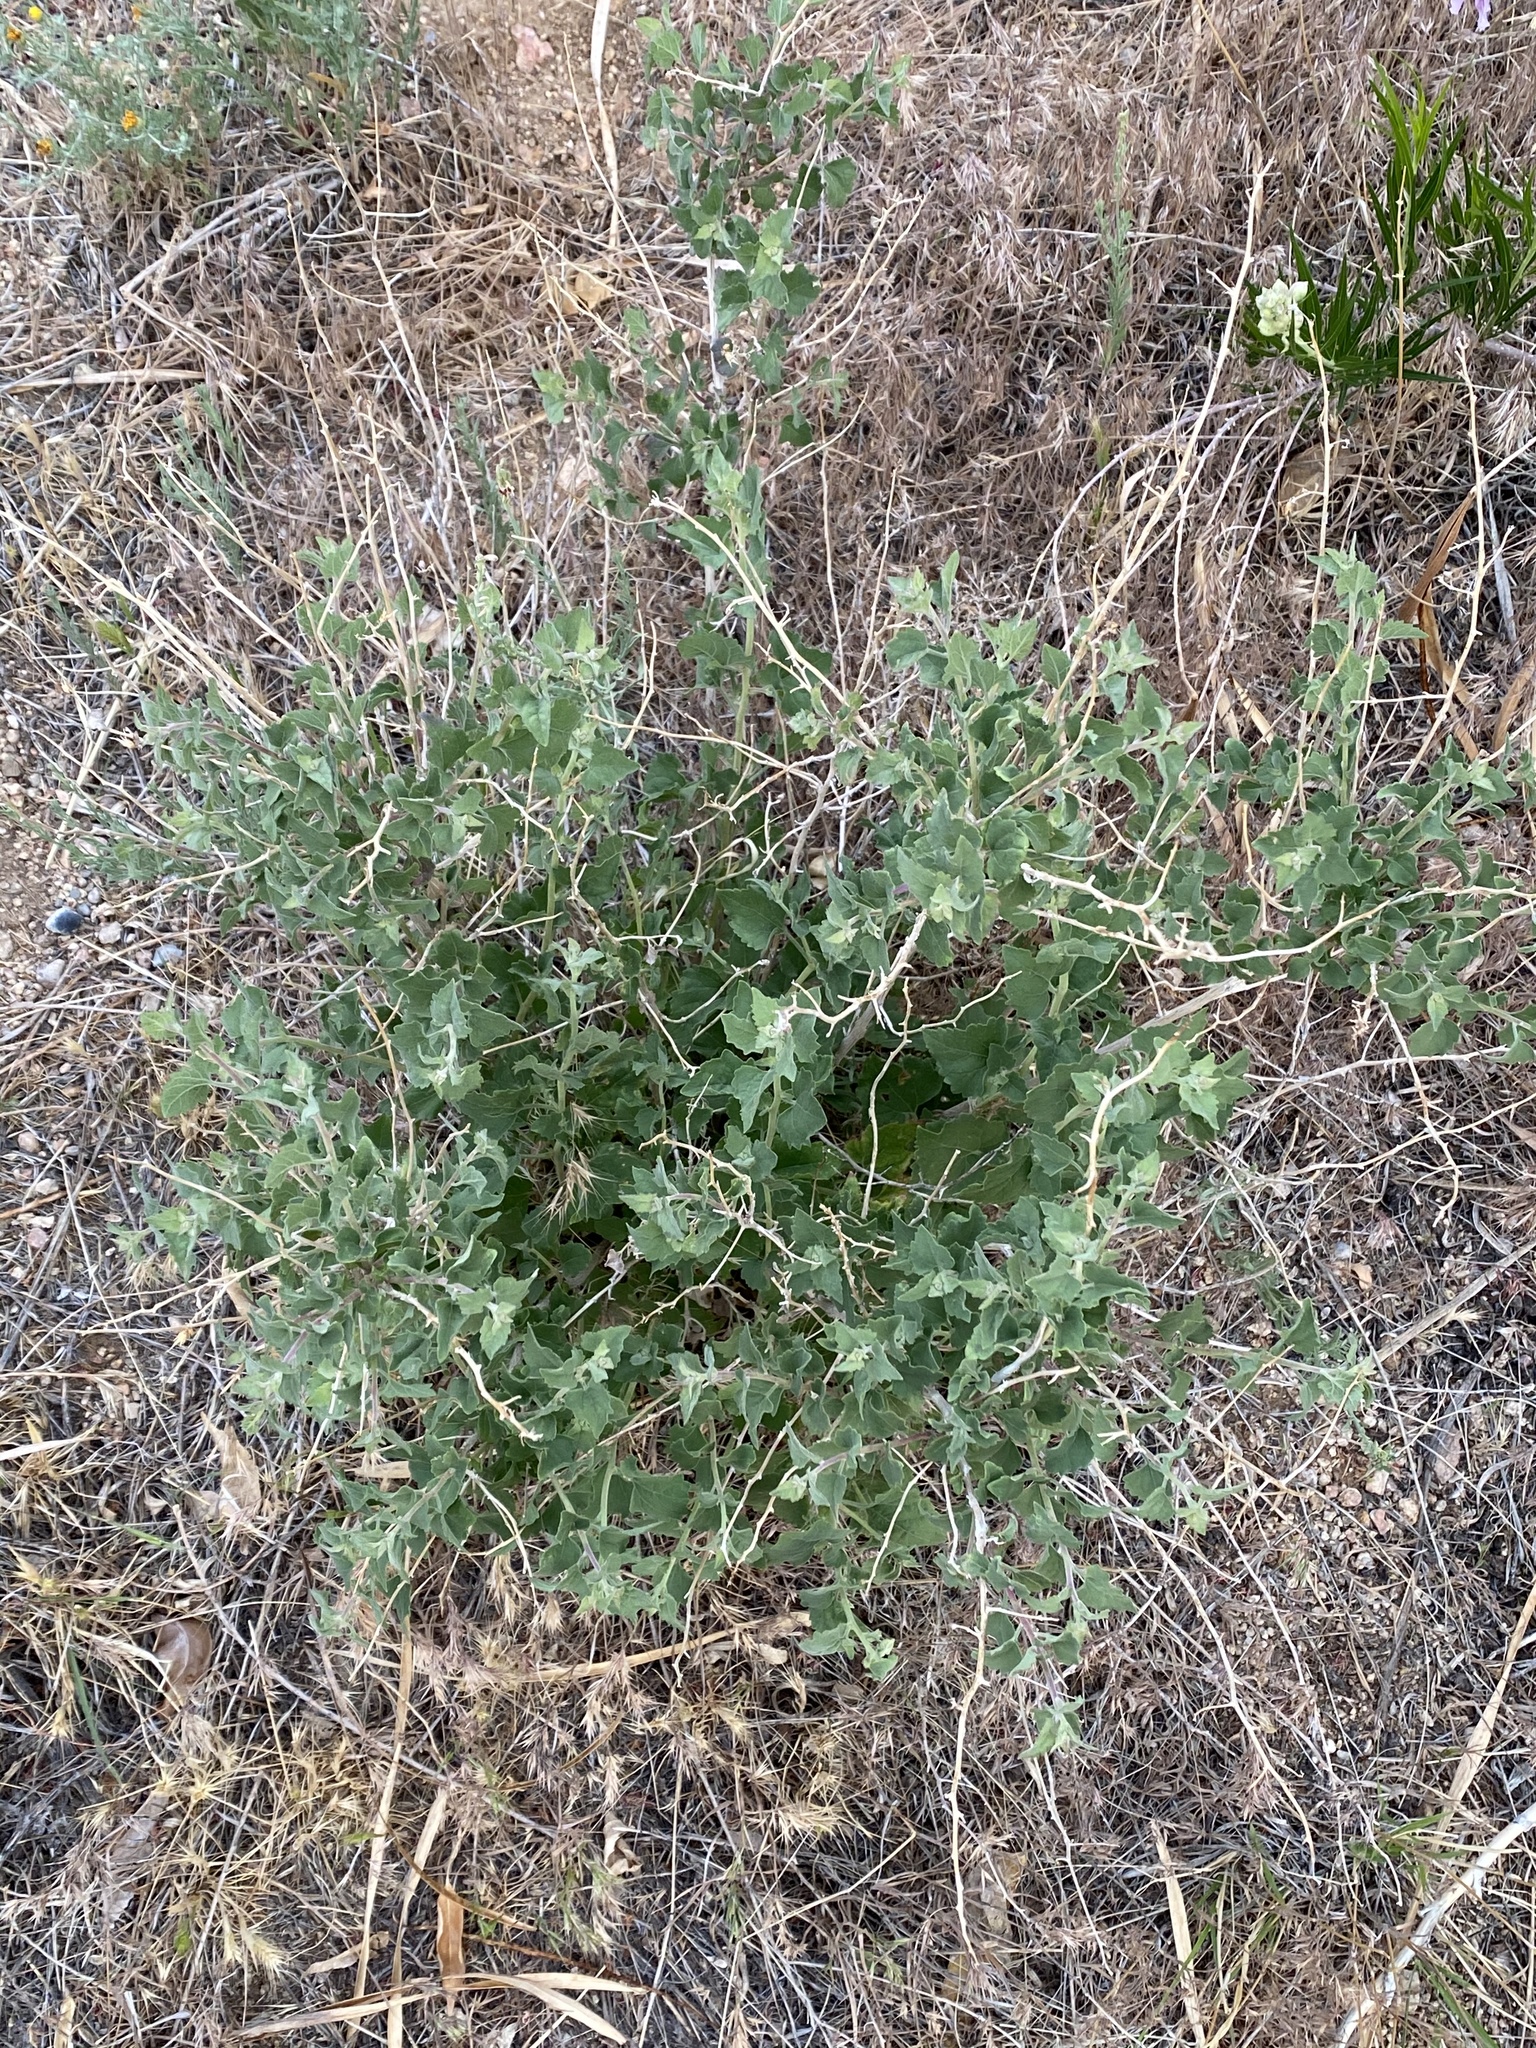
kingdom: Plantae
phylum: Tracheophyta
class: Magnoliopsida
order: Asterales
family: Asteraceae
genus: Brickellia
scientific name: Brickellia californica
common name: California brickellbush
